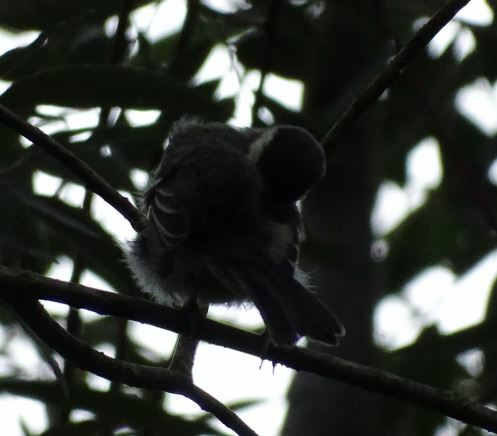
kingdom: Animalia
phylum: Chordata
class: Aves
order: Passeriformes
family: Paridae
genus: Parus
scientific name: Parus major
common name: Great tit
